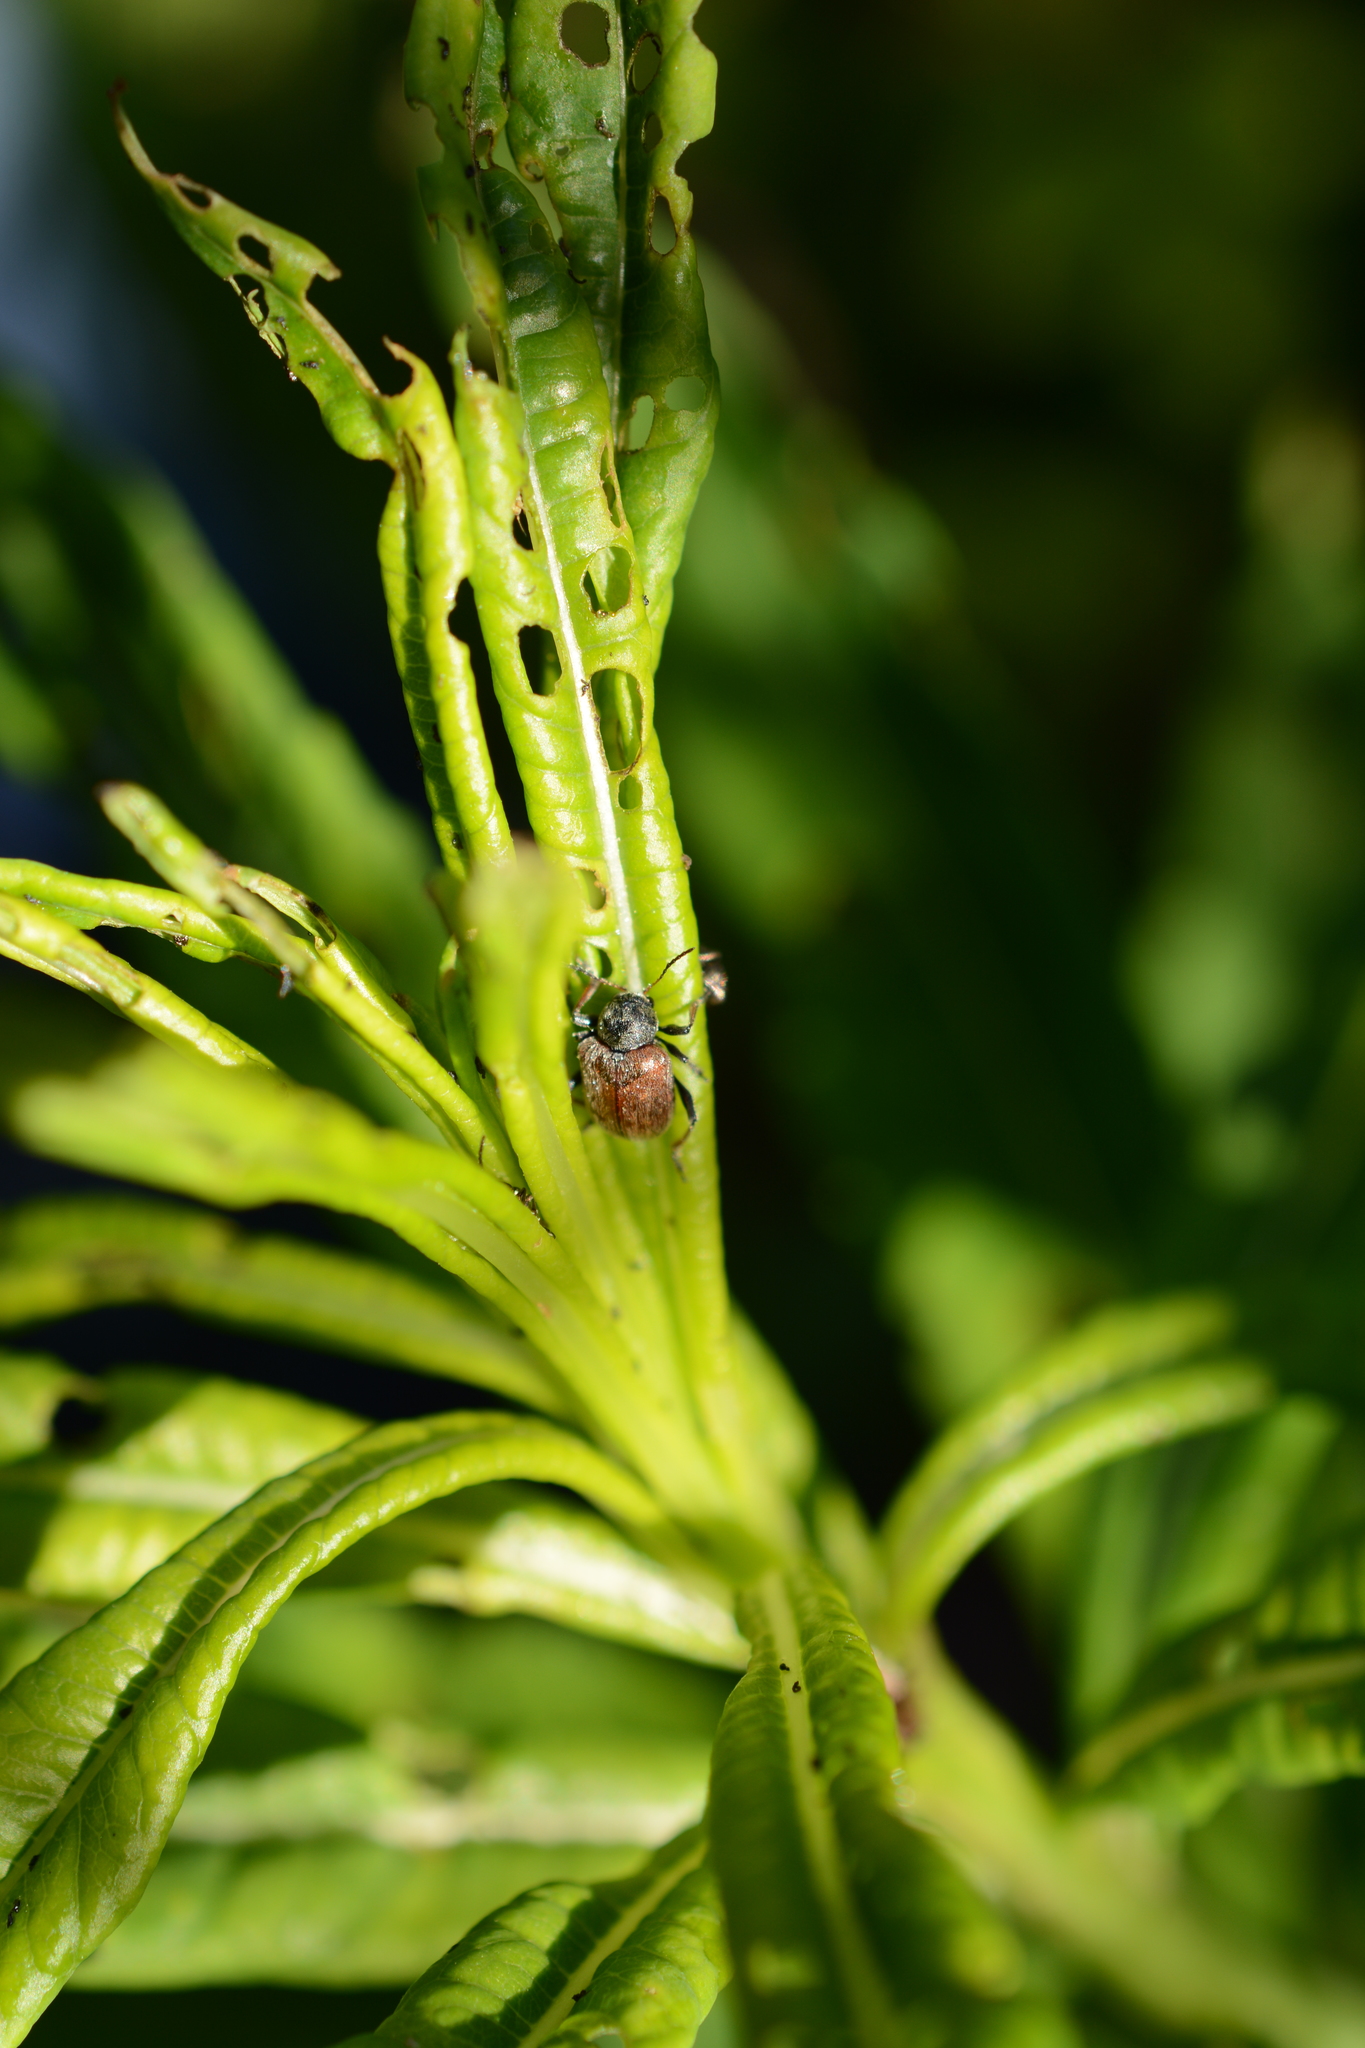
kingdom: Animalia
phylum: Arthropoda
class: Insecta
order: Coleoptera
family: Byturidae
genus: Byturus
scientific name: Byturus unicolor
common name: Raspberry fruitworm beetle
